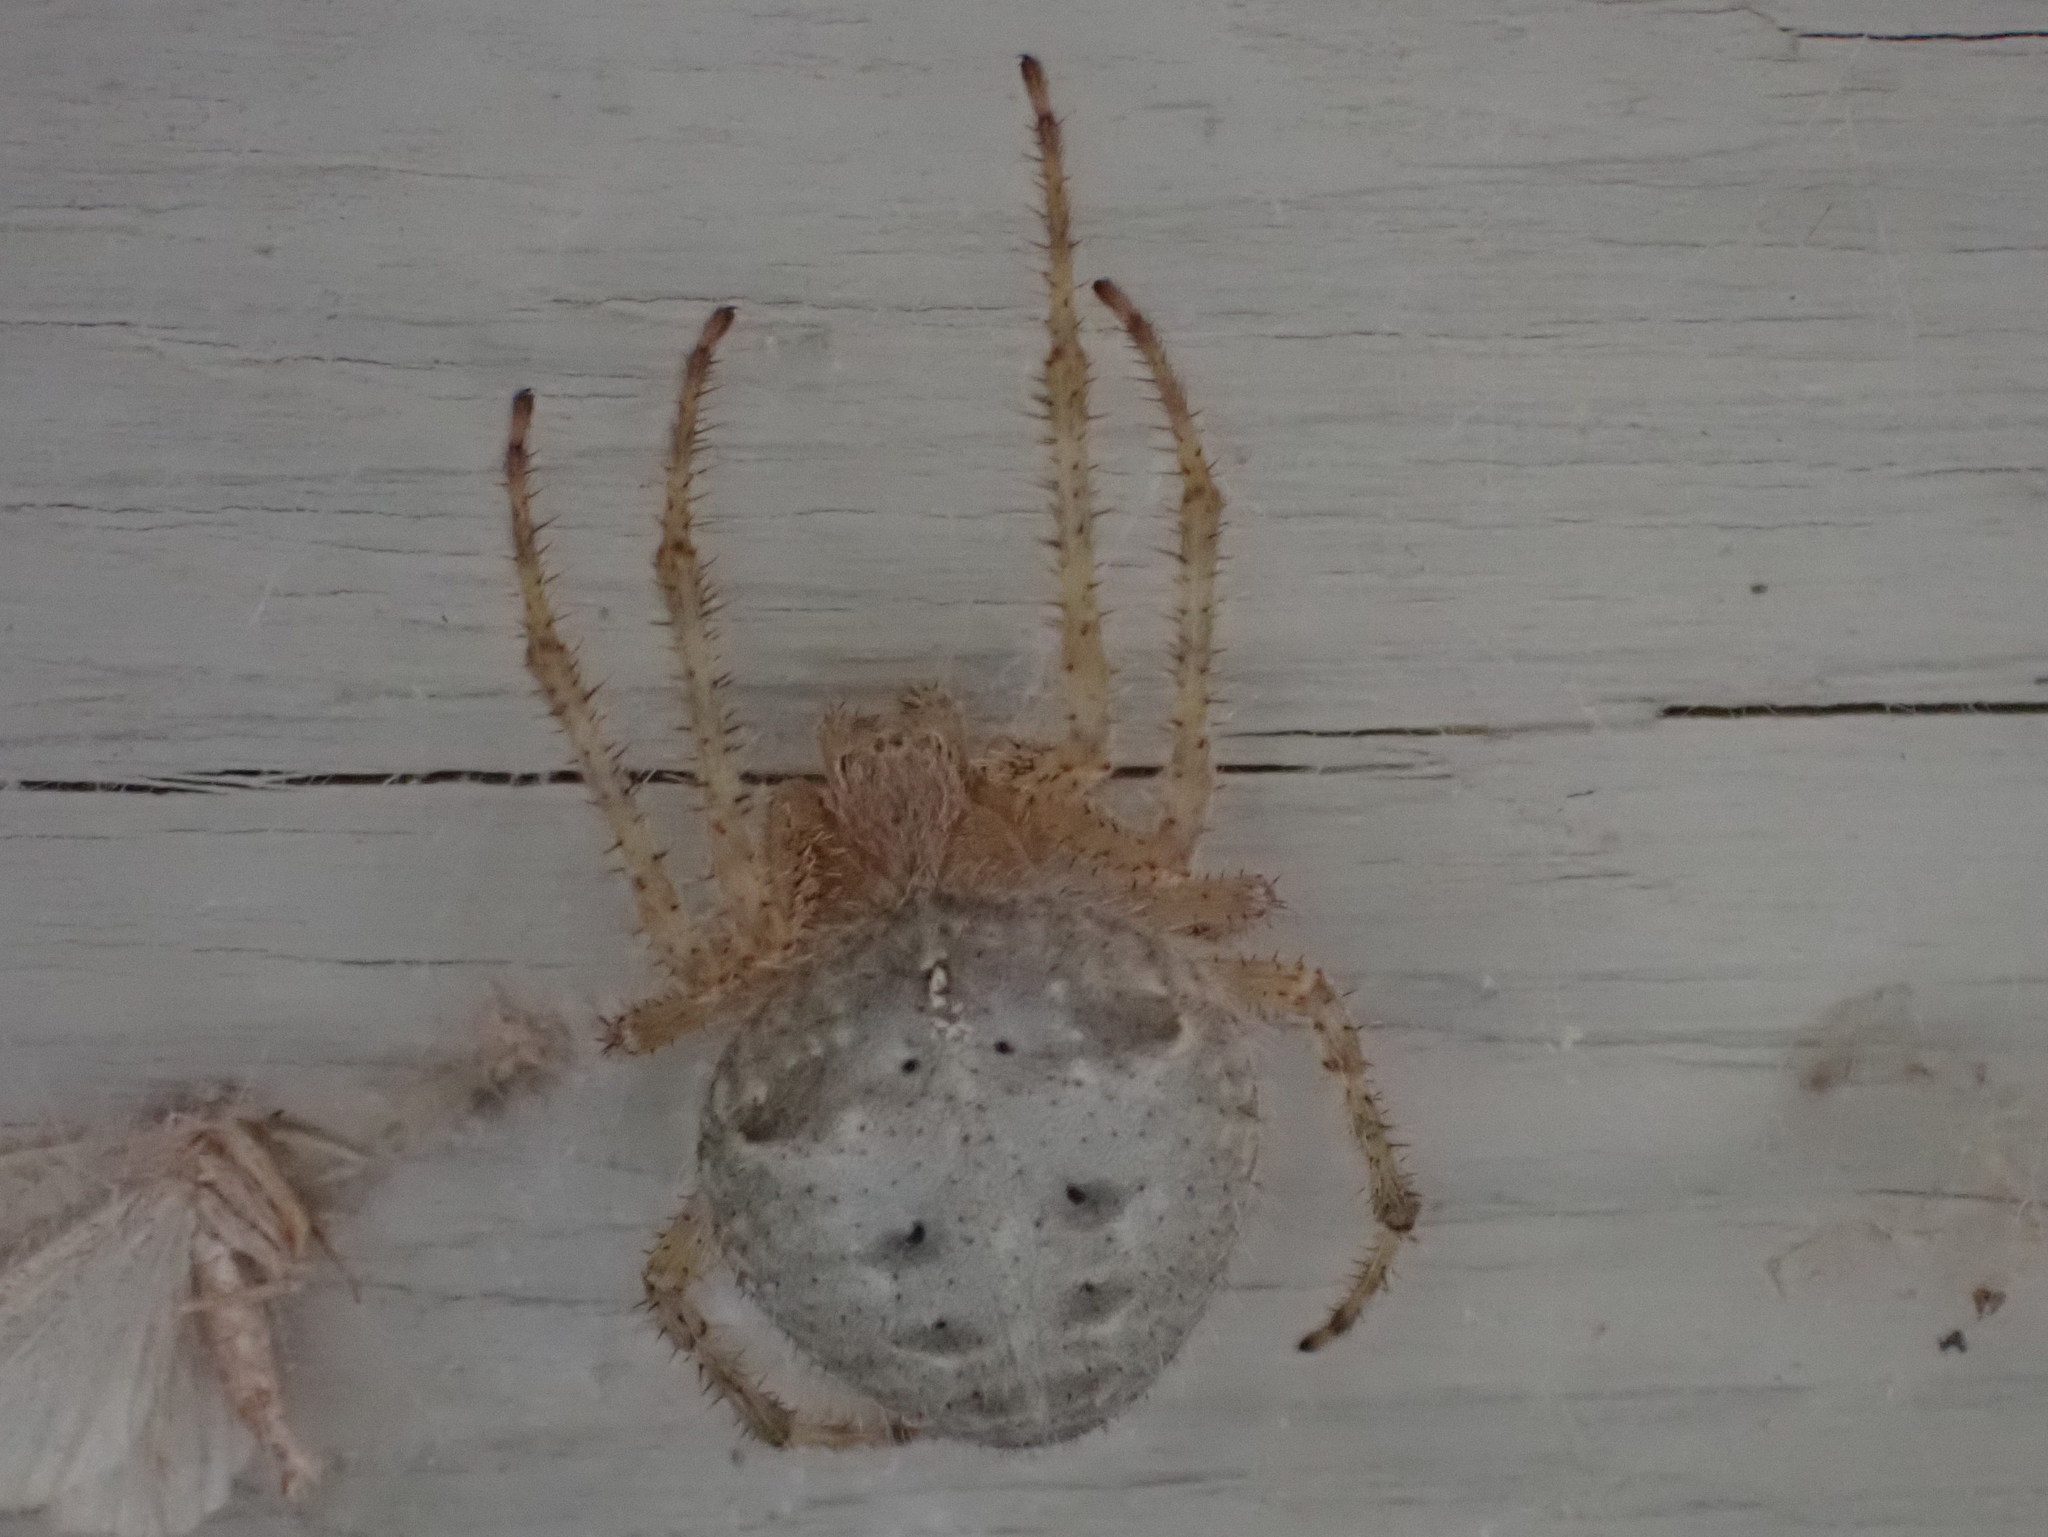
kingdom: Animalia
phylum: Arthropoda
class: Arachnida
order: Araneae
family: Araneidae
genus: Araneus
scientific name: Araneus cavaticus
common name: Barn orbweaver
